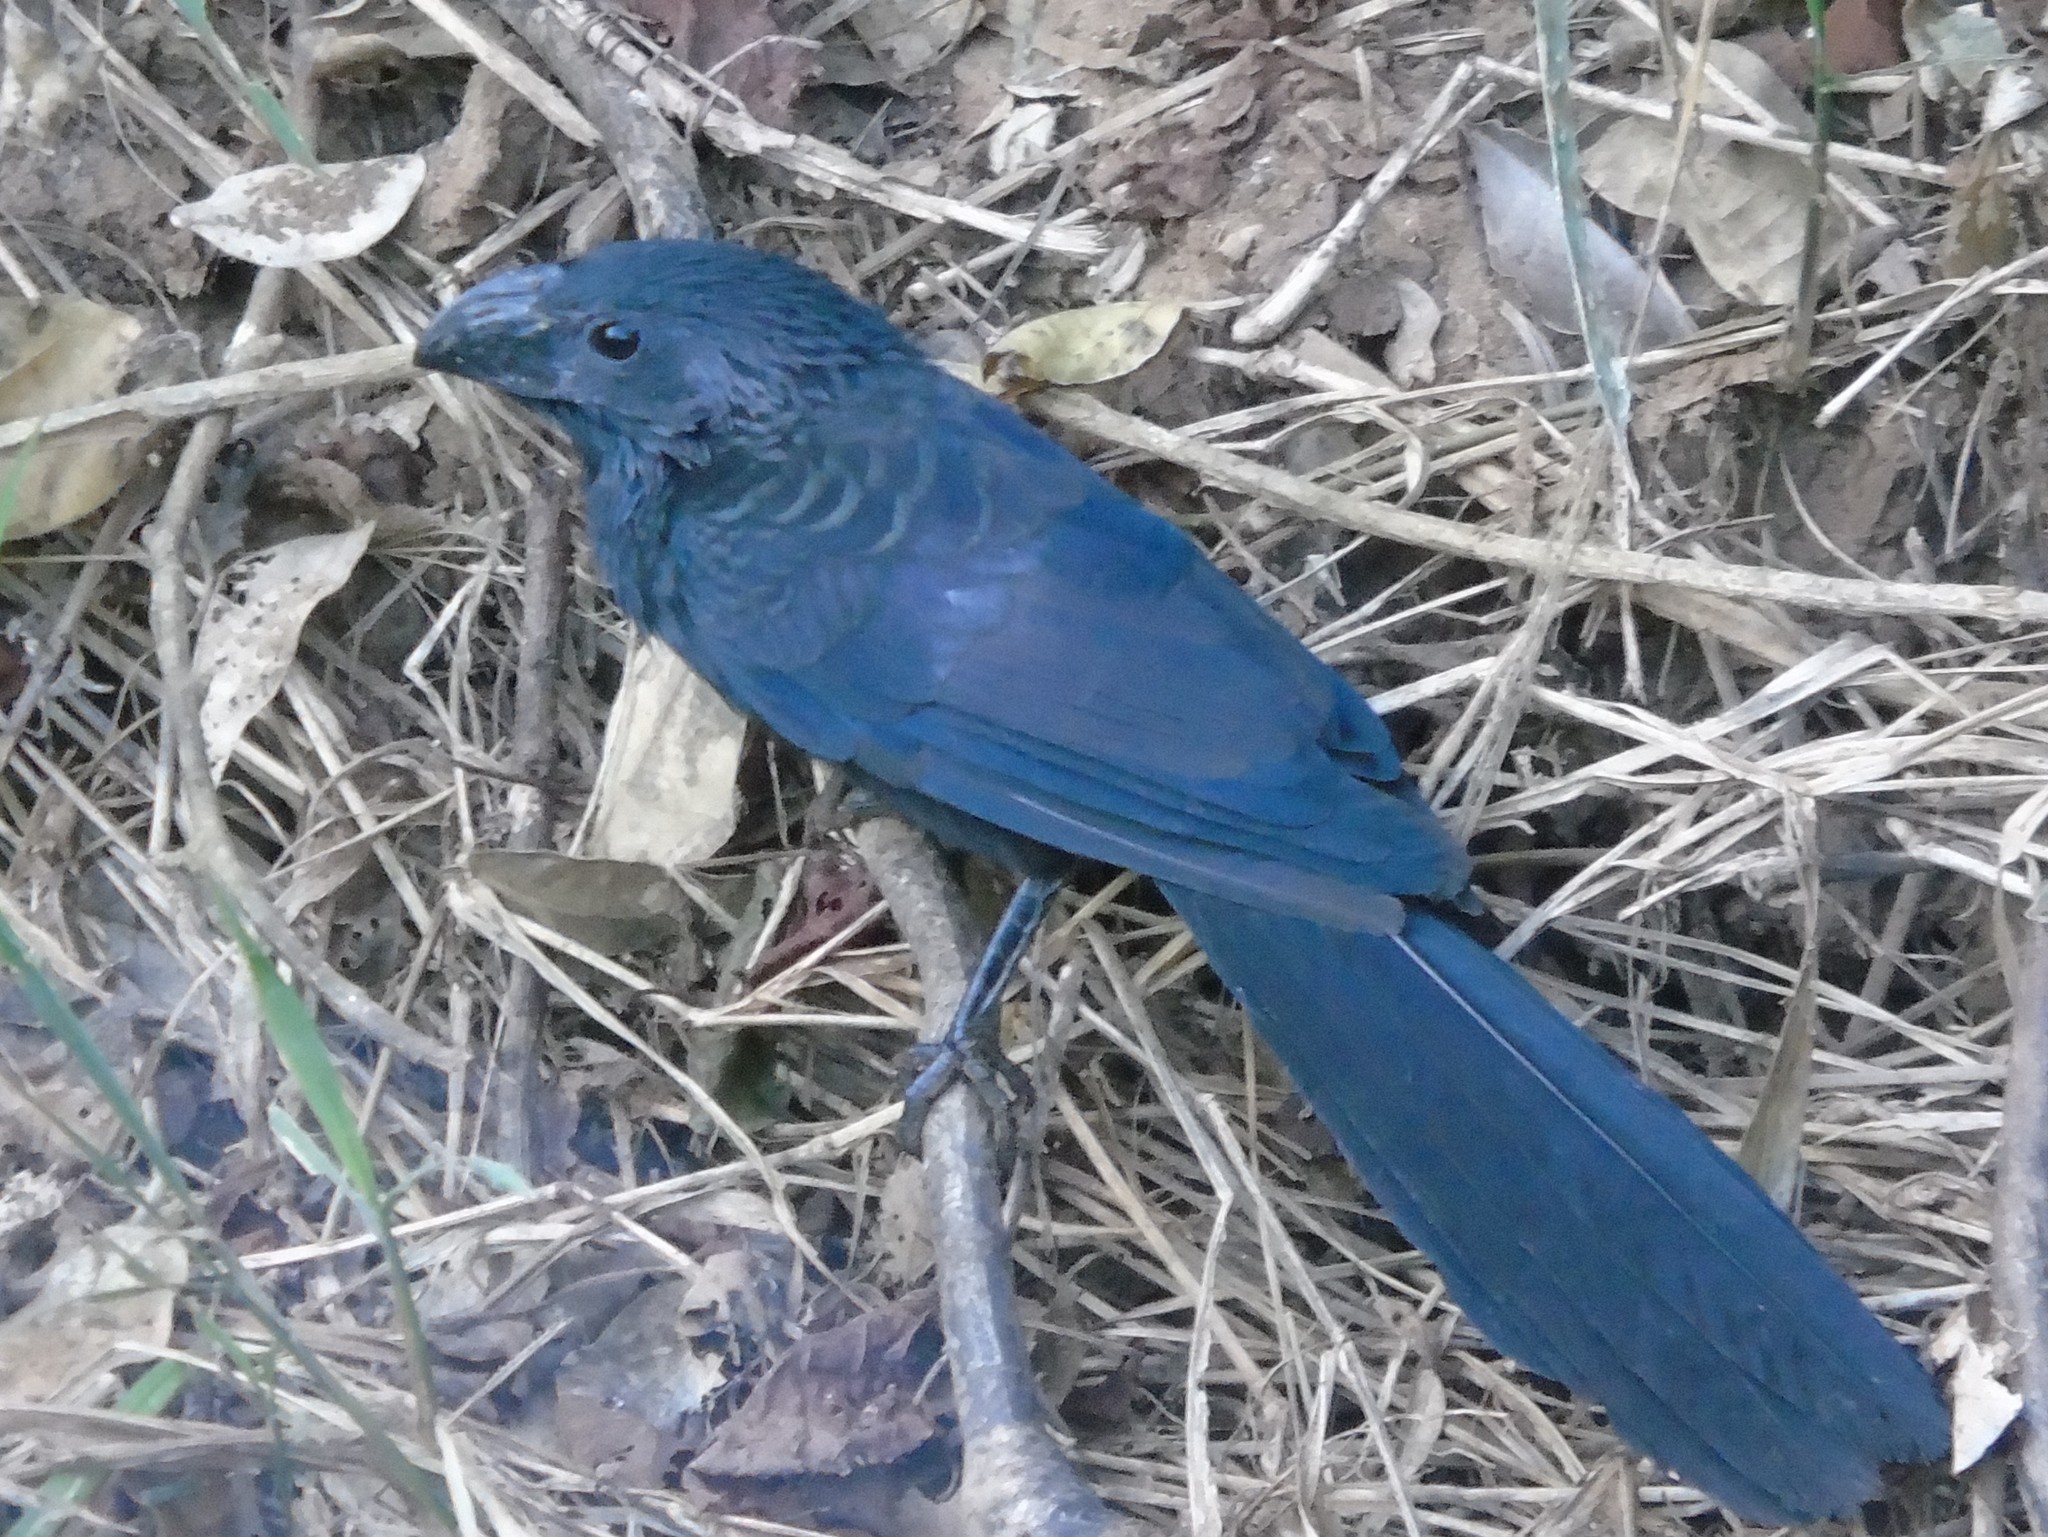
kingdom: Animalia
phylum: Chordata
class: Aves
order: Cuculiformes
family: Cuculidae
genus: Crotophaga
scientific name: Crotophaga sulcirostris
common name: Groove-billed ani
